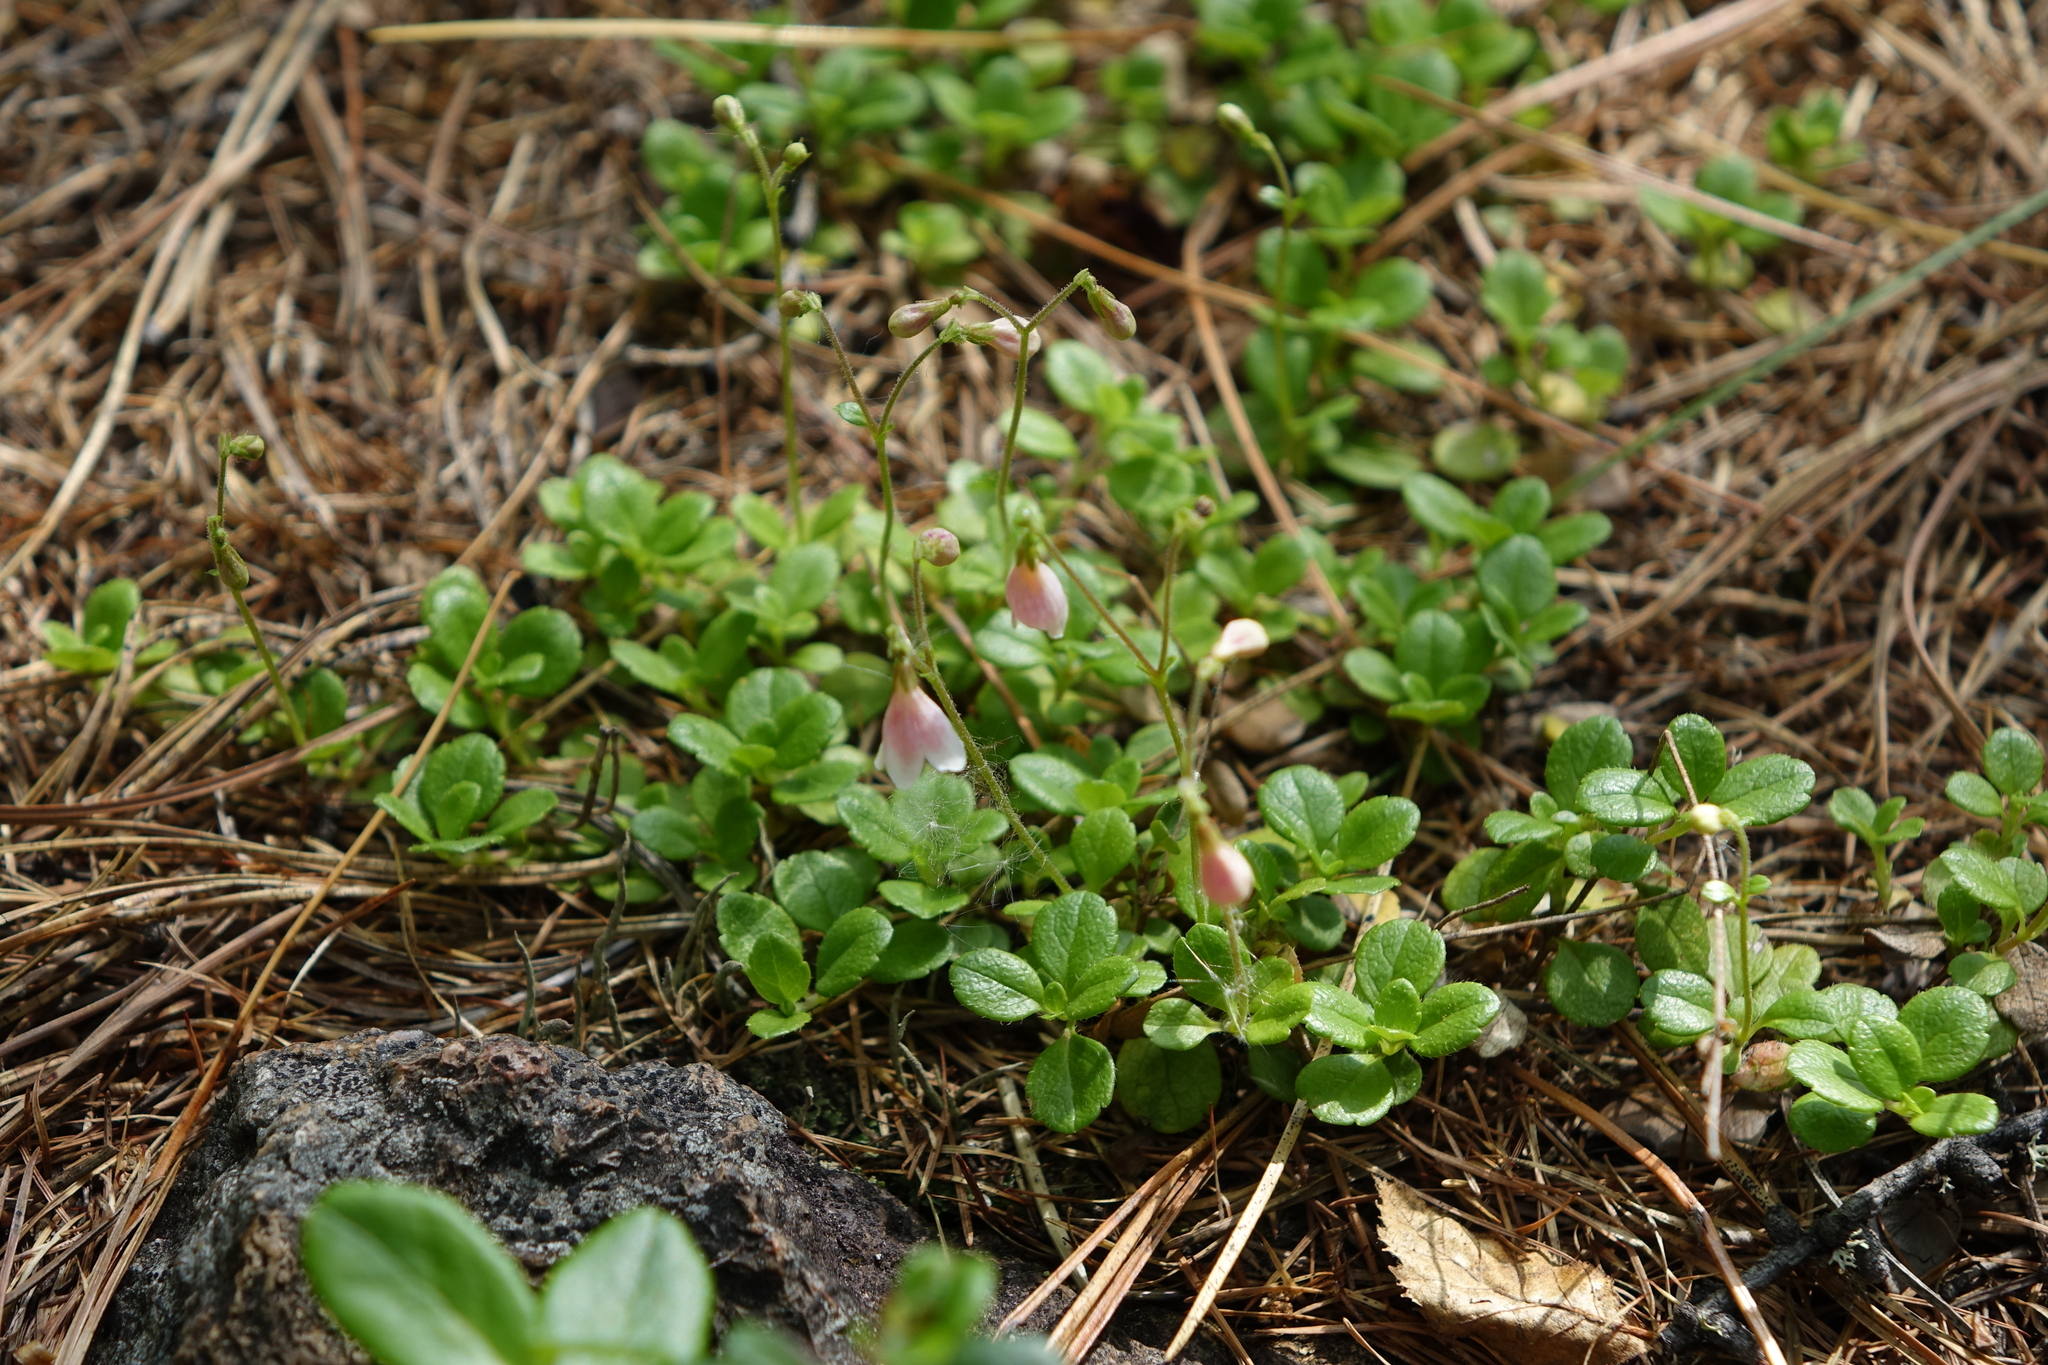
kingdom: Plantae
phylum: Tracheophyta
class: Magnoliopsida
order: Dipsacales
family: Caprifoliaceae
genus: Linnaea
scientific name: Linnaea borealis
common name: Twinflower
